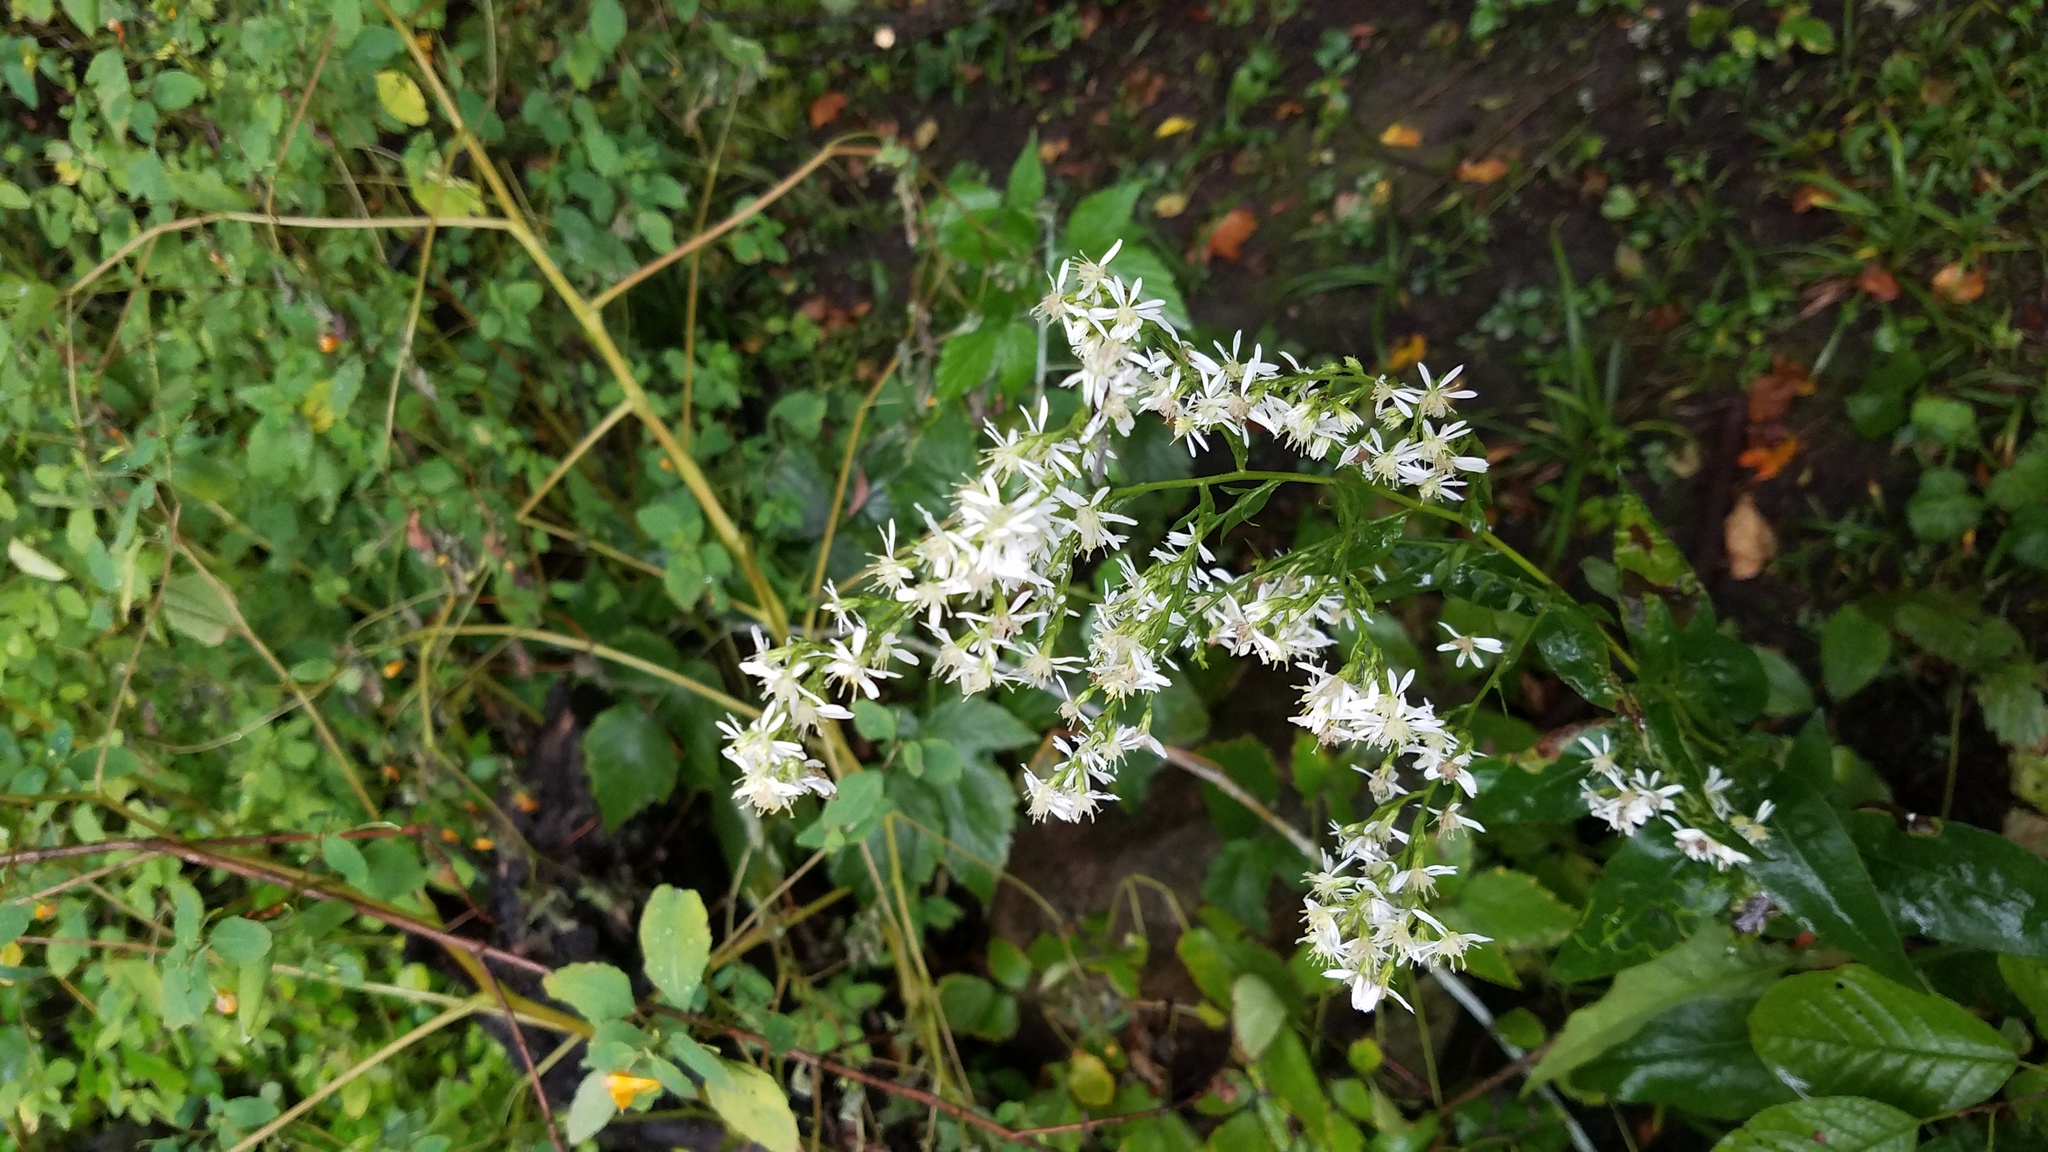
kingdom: Plantae
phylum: Tracheophyta
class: Magnoliopsida
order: Asterales
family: Asteraceae
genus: Symphyotrichum
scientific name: Symphyotrichum urophyllum
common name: Arrow-leaved aster
